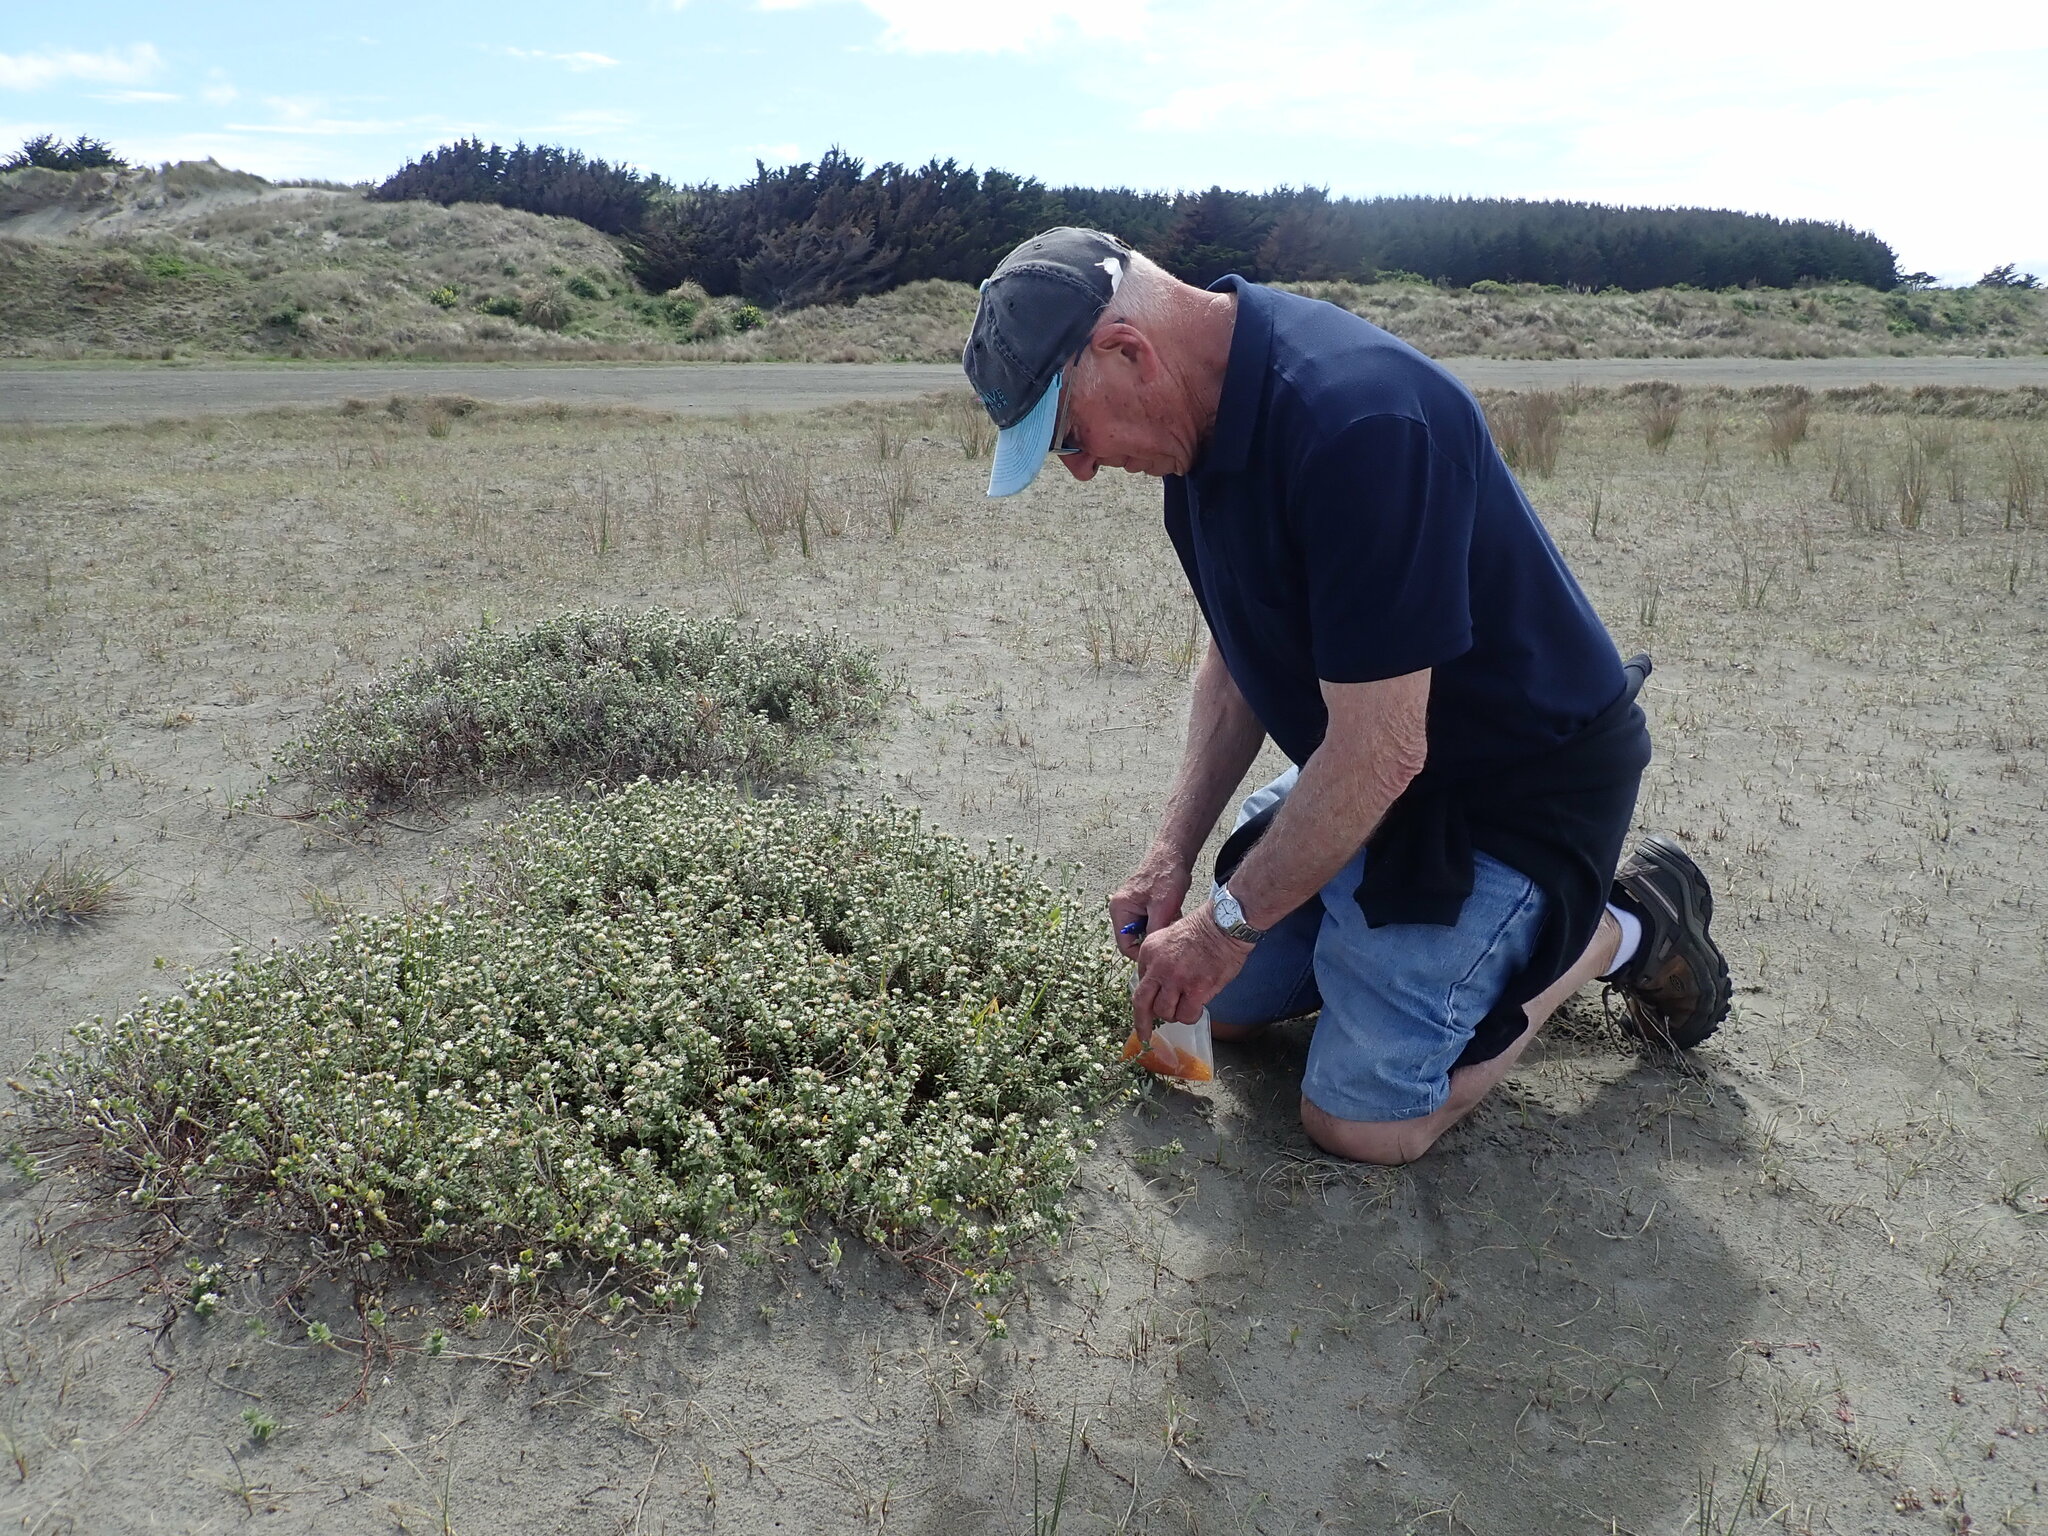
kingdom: Plantae
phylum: Tracheophyta
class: Magnoliopsida
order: Malvales
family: Thymelaeaceae
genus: Pimelea
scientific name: Pimelea villosa
